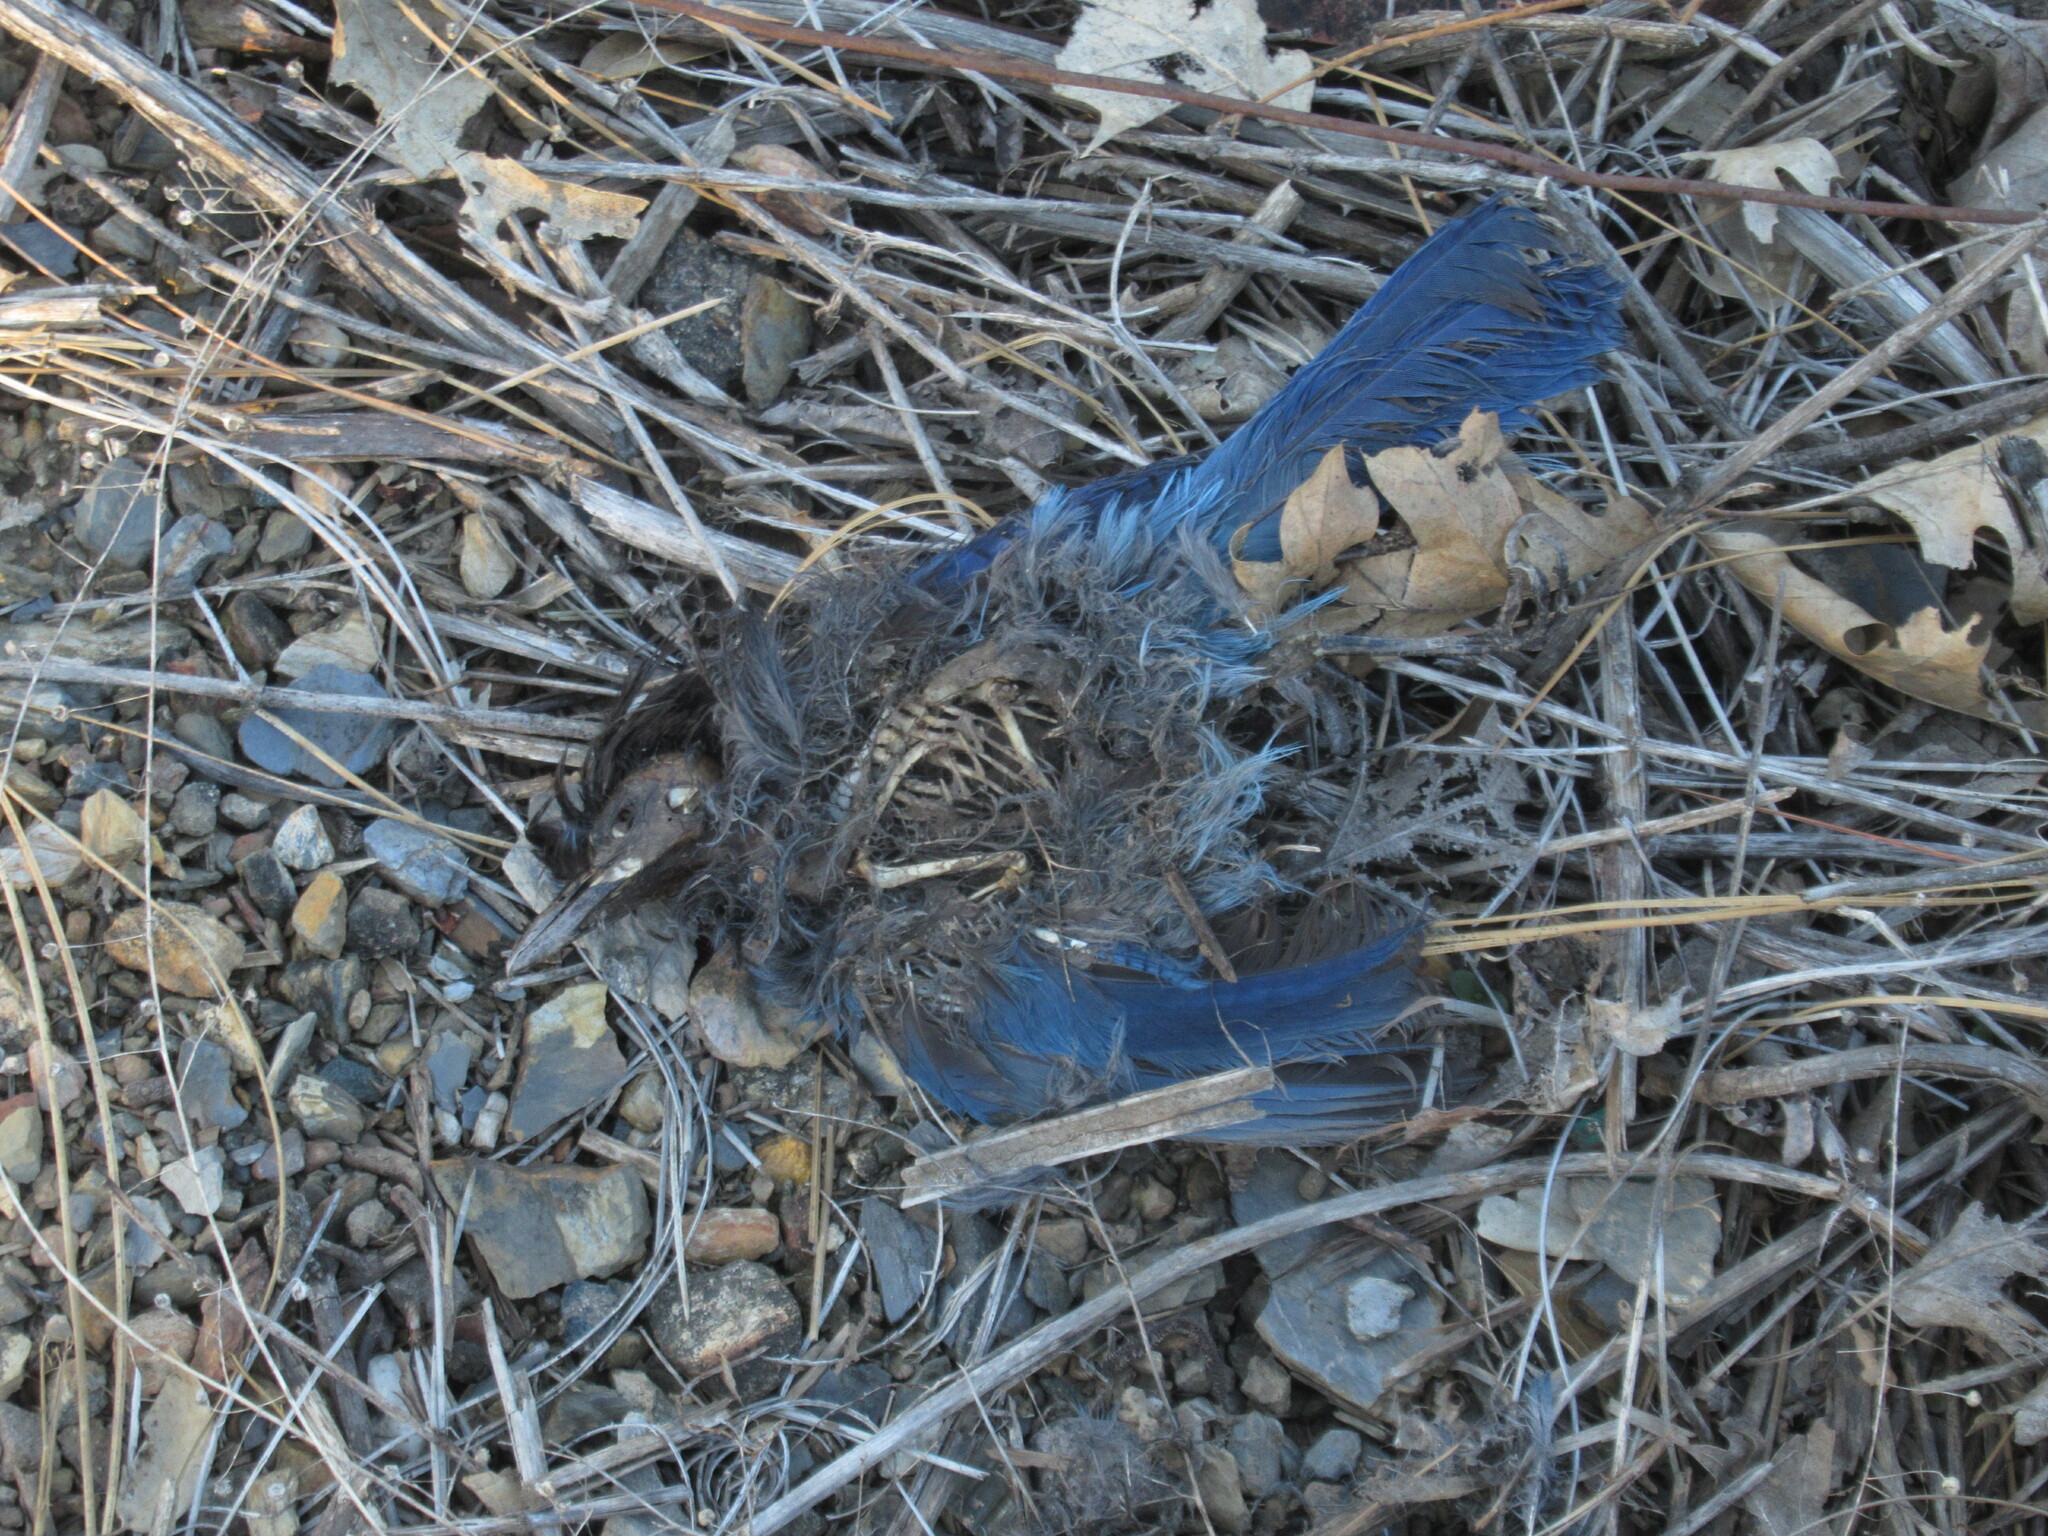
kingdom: Animalia
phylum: Chordata
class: Aves
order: Passeriformes
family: Corvidae
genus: Cyanocitta
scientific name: Cyanocitta stelleri
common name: Steller's jay
